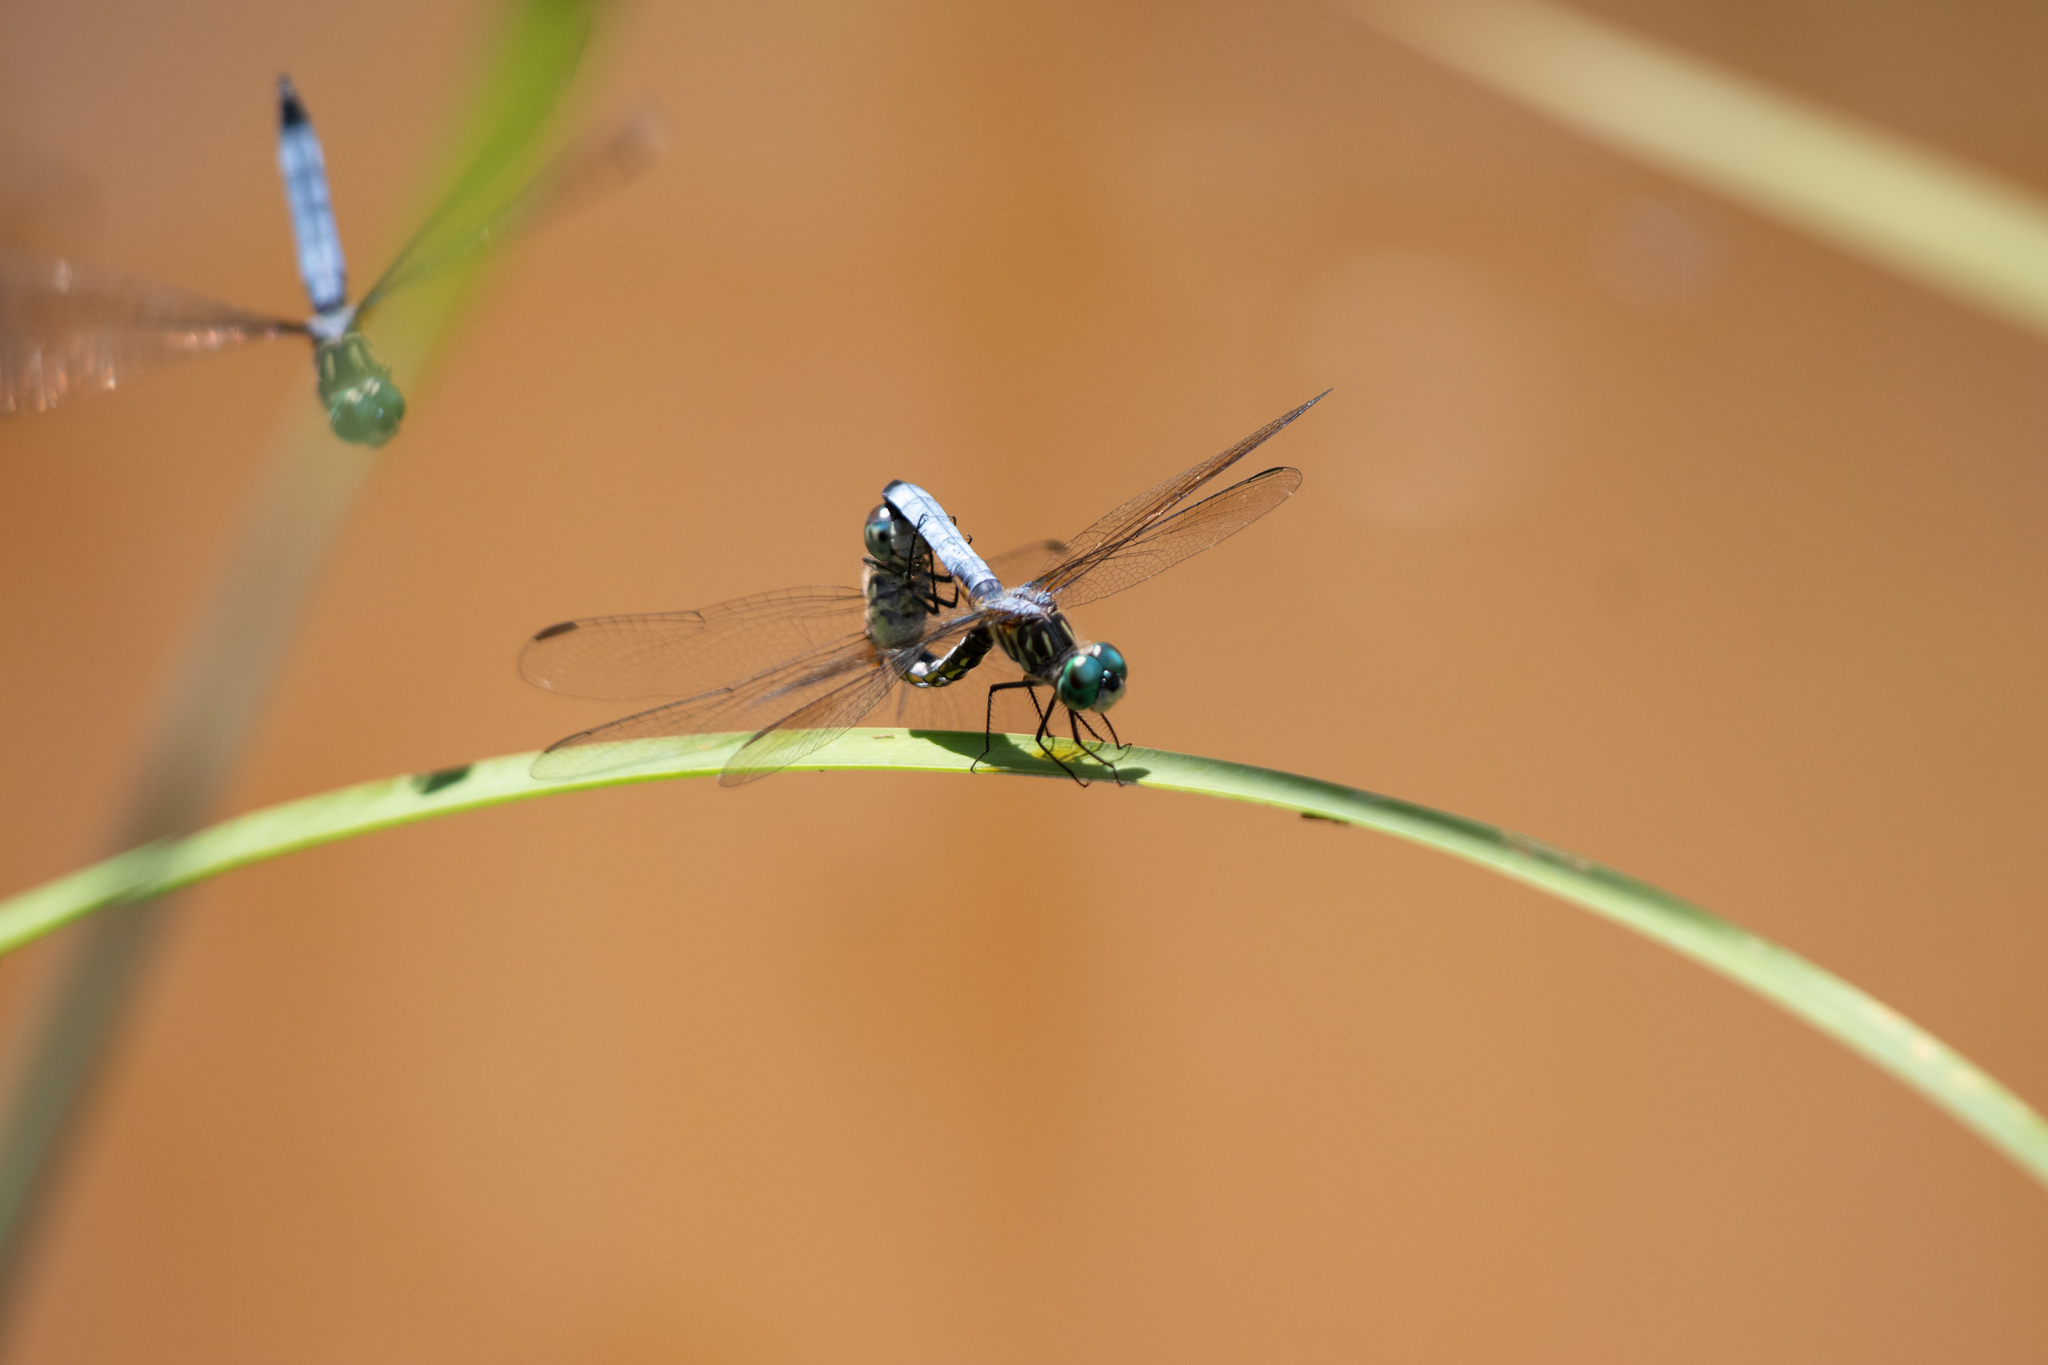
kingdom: Animalia
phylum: Arthropoda
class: Insecta
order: Odonata
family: Libellulidae
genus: Pachydiplax
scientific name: Pachydiplax longipennis
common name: Blue dasher
